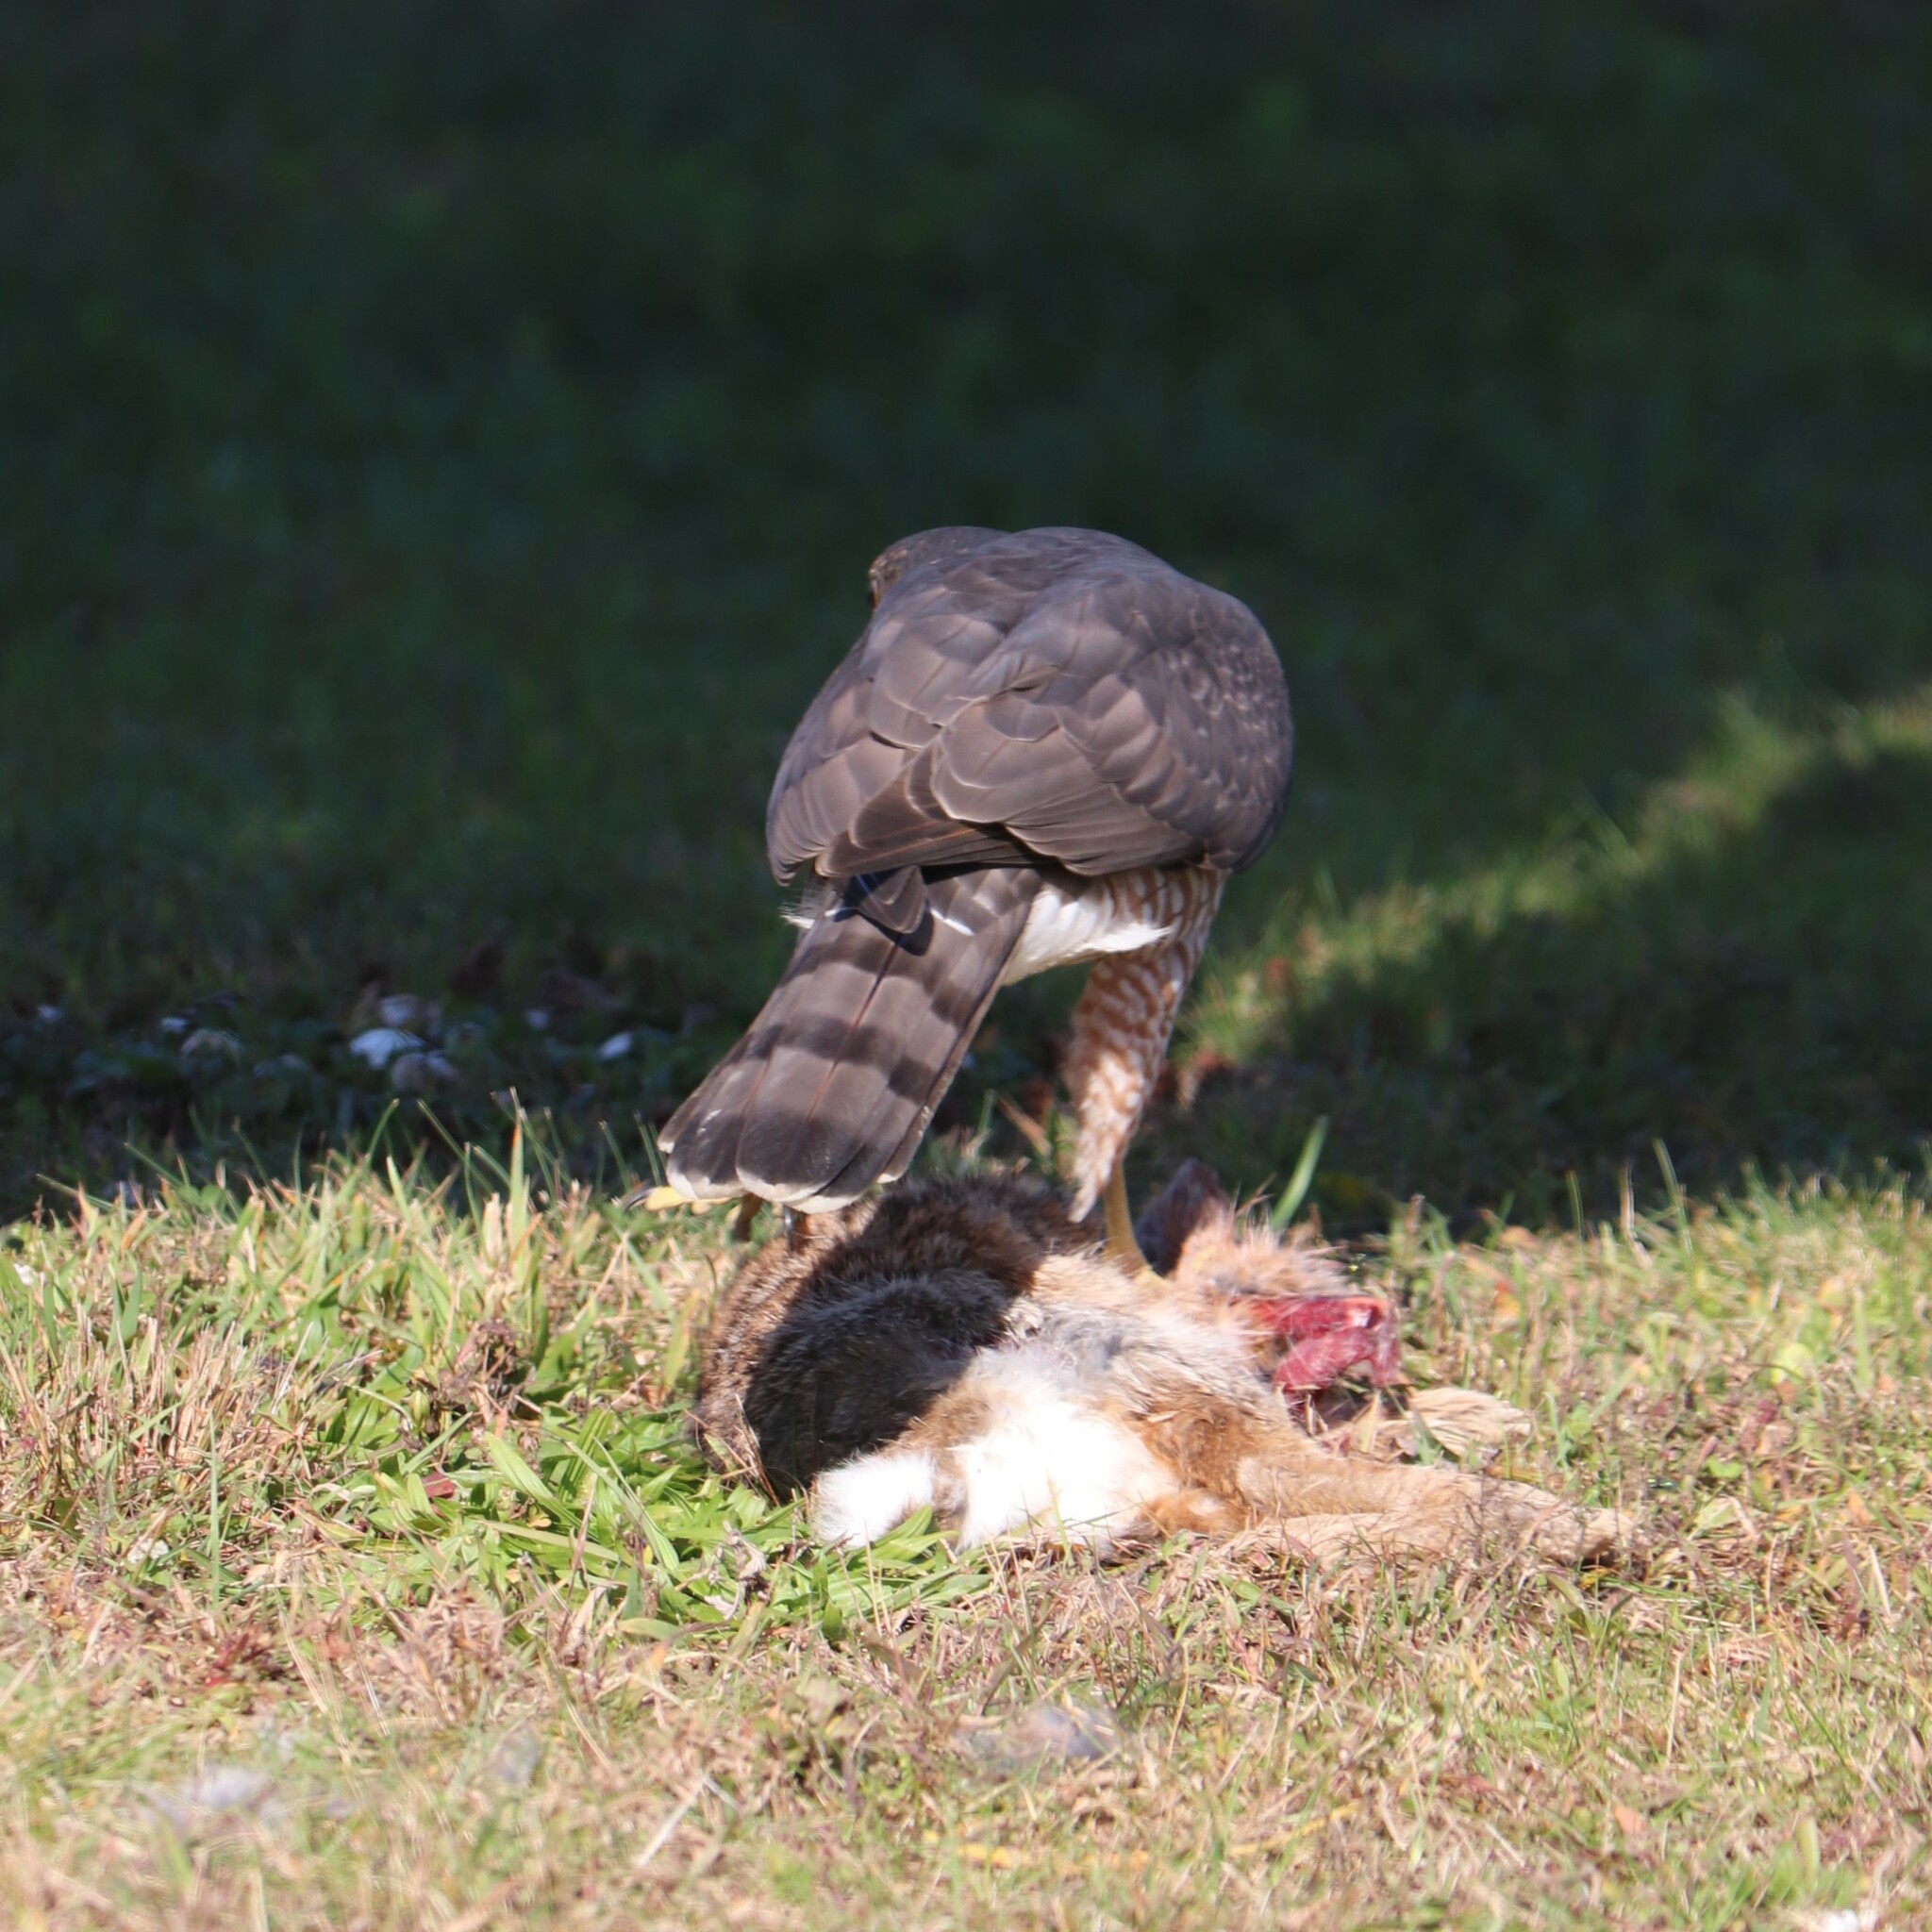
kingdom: Animalia
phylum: Chordata
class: Mammalia
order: Lagomorpha
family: Leporidae
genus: Sylvilagus
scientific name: Sylvilagus floridanus
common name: Eastern cottontail
